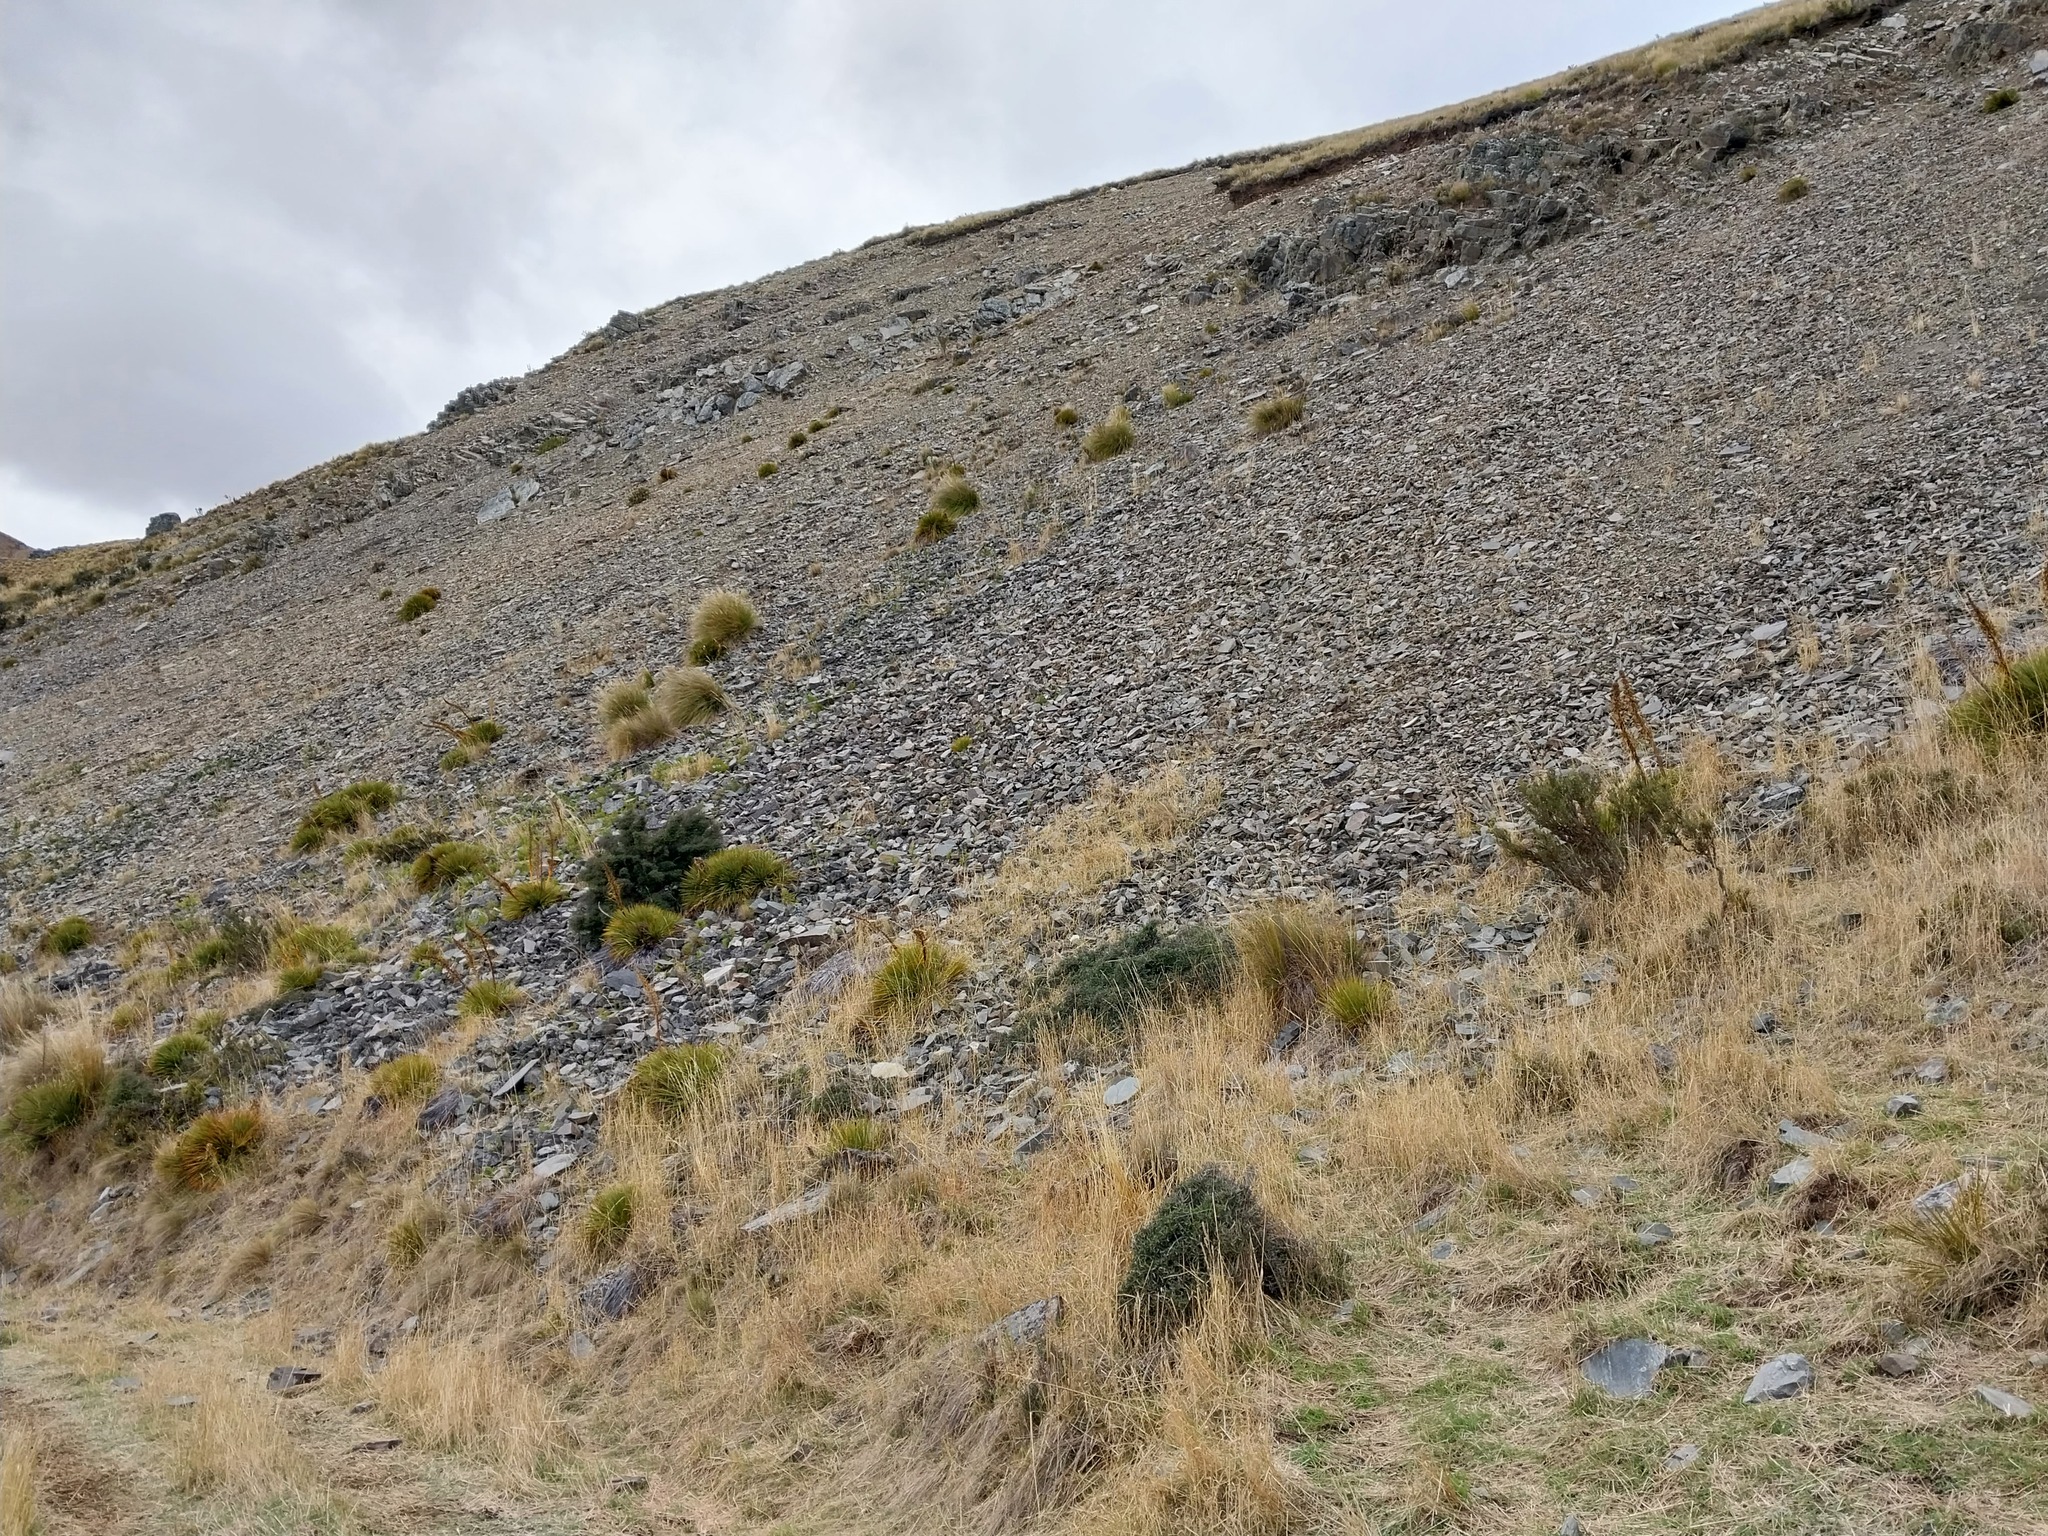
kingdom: Plantae
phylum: Tracheophyta
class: Magnoliopsida
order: Apiales
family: Apiaceae
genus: Aciphylla
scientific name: Aciphylla aurea
